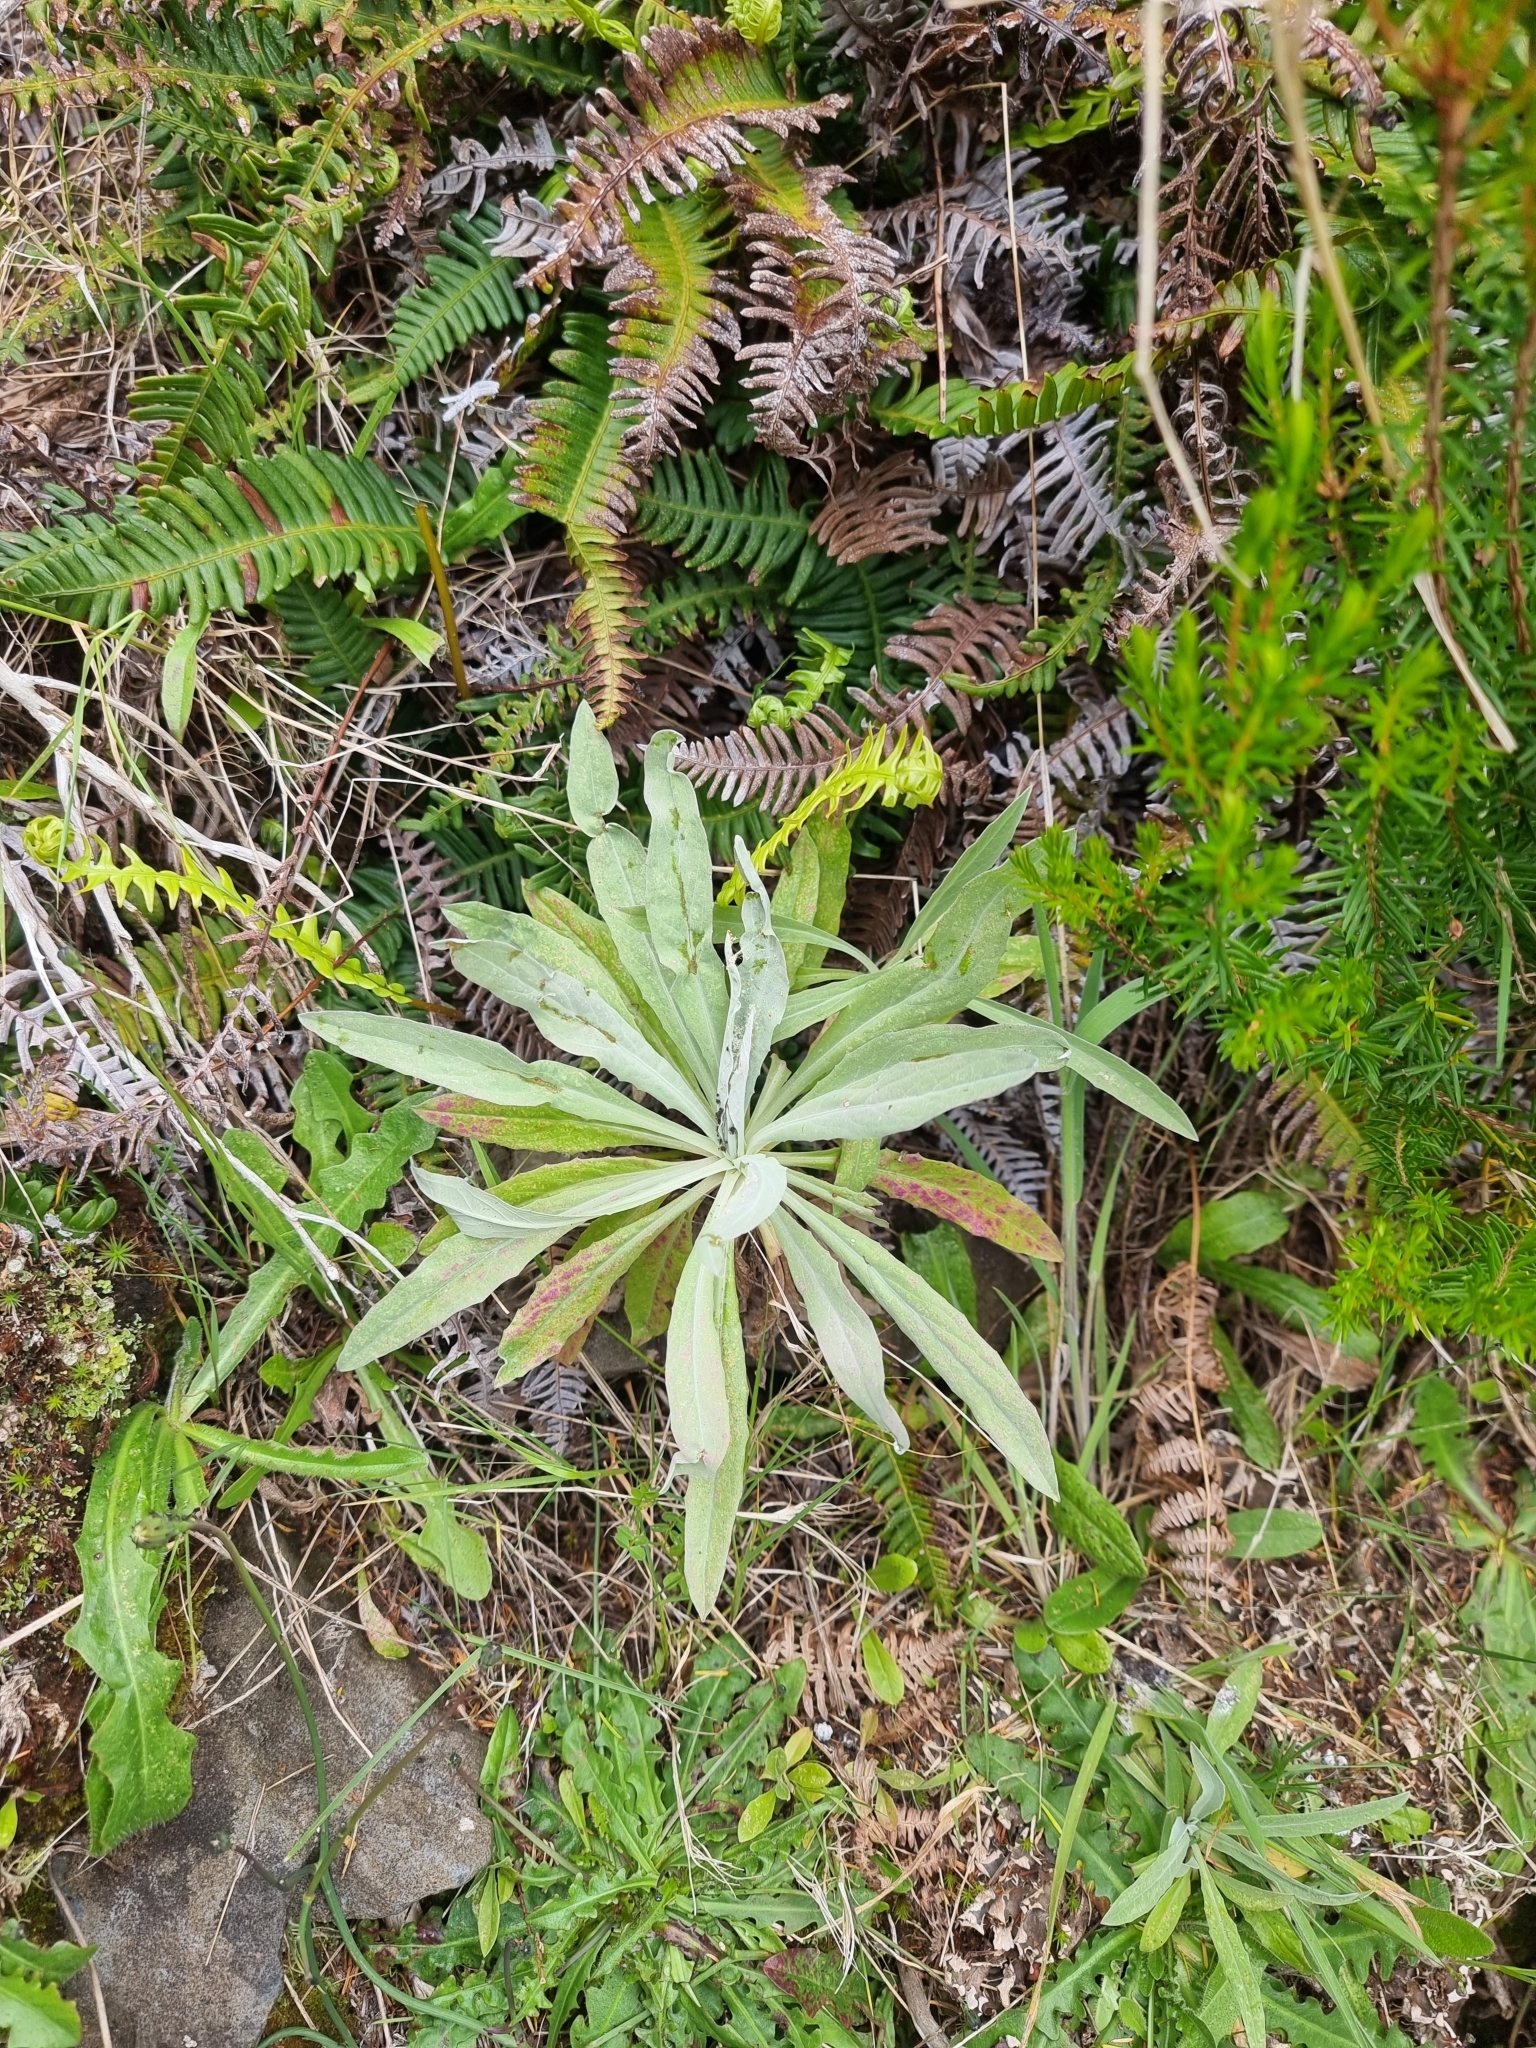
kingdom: Plantae
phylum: Tracheophyta
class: Magnoliopsida
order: Asterales
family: Asteraceae
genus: Andryala
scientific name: Andryala glandulosa
